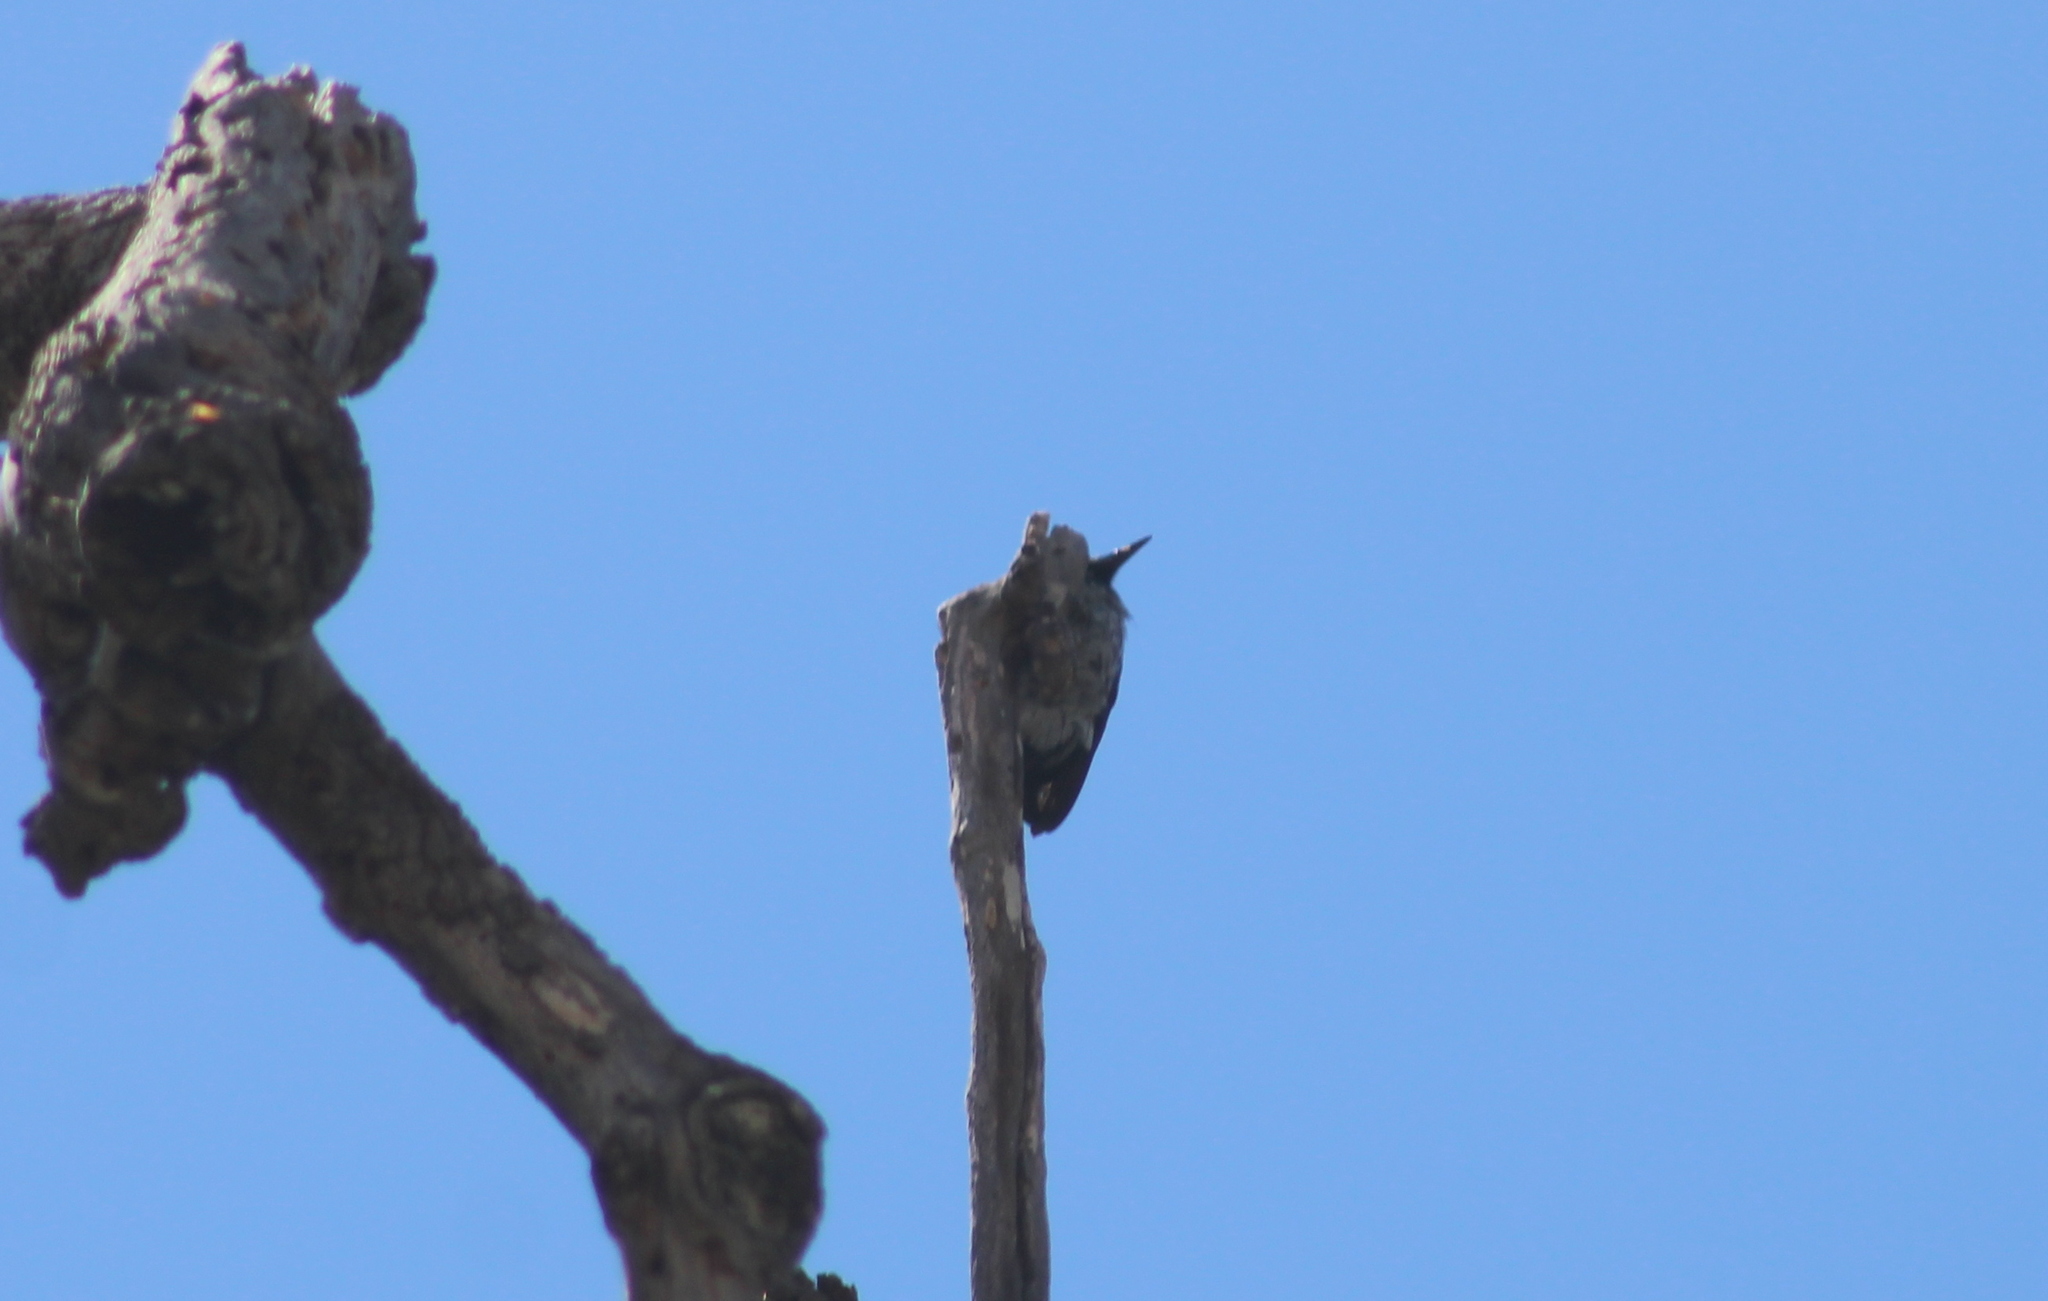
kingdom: Animalia
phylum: Chordata
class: Aves
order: Piciformes
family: Picidae
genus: Melanerpes
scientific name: Melanerpes formicivorus
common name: Acorn woodpecker
